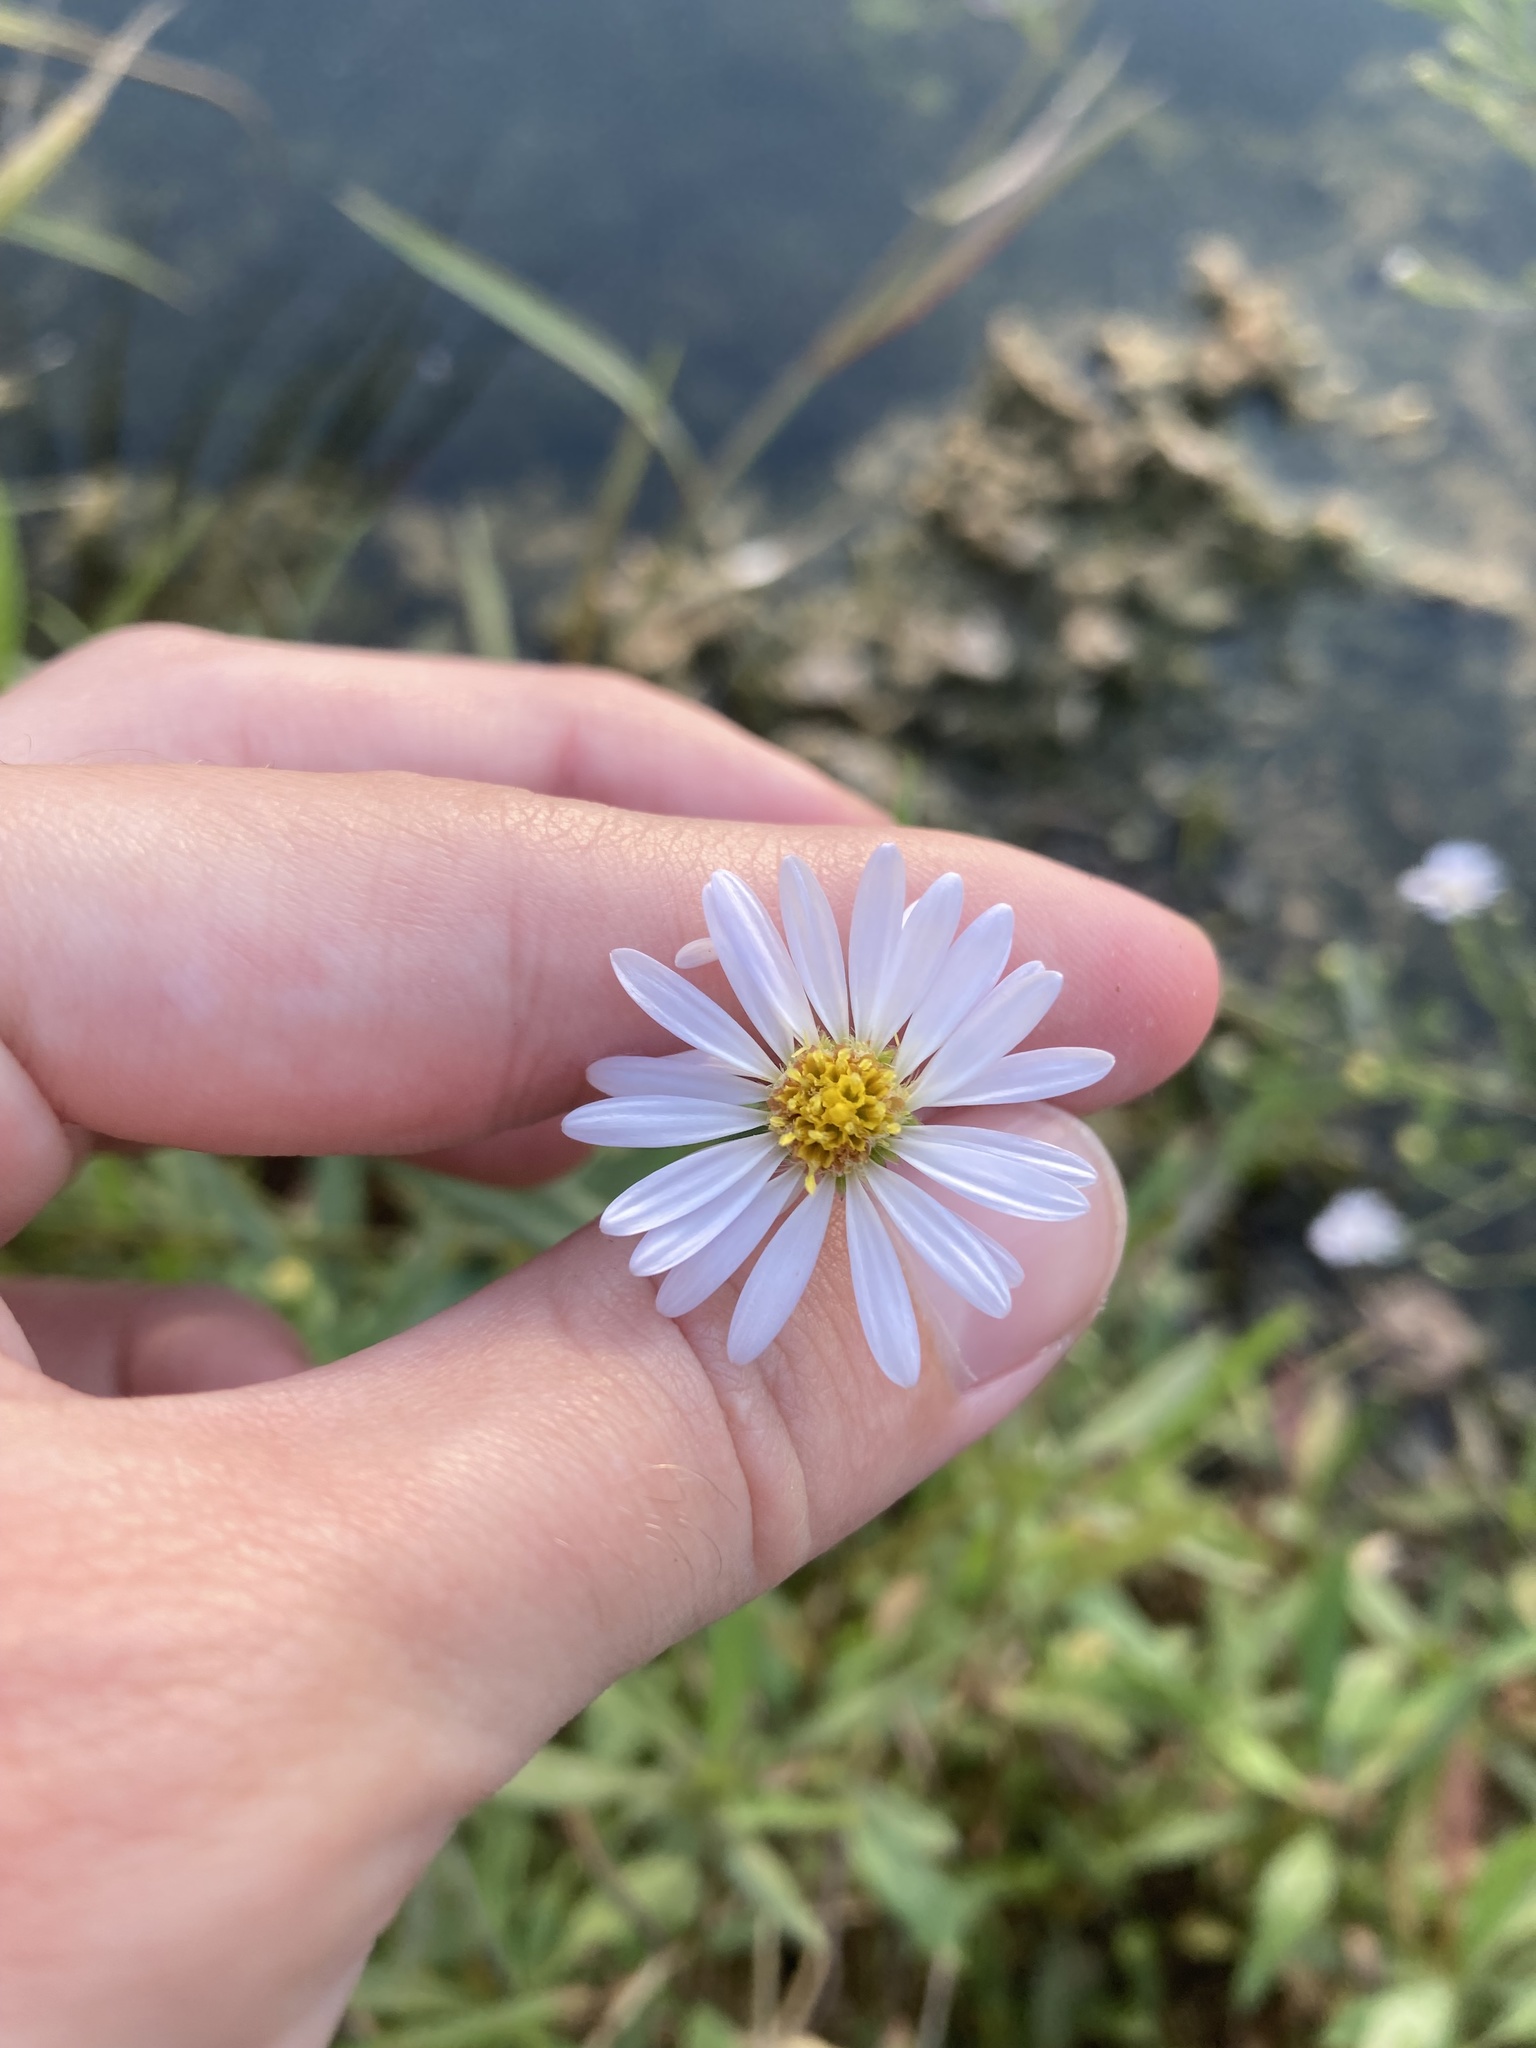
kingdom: Plantae
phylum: Tracheophyta
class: Magnoliopsida
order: Asterales
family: Asteraceae
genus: Symphyotrichum
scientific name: Symphyotrichum simmondsii
